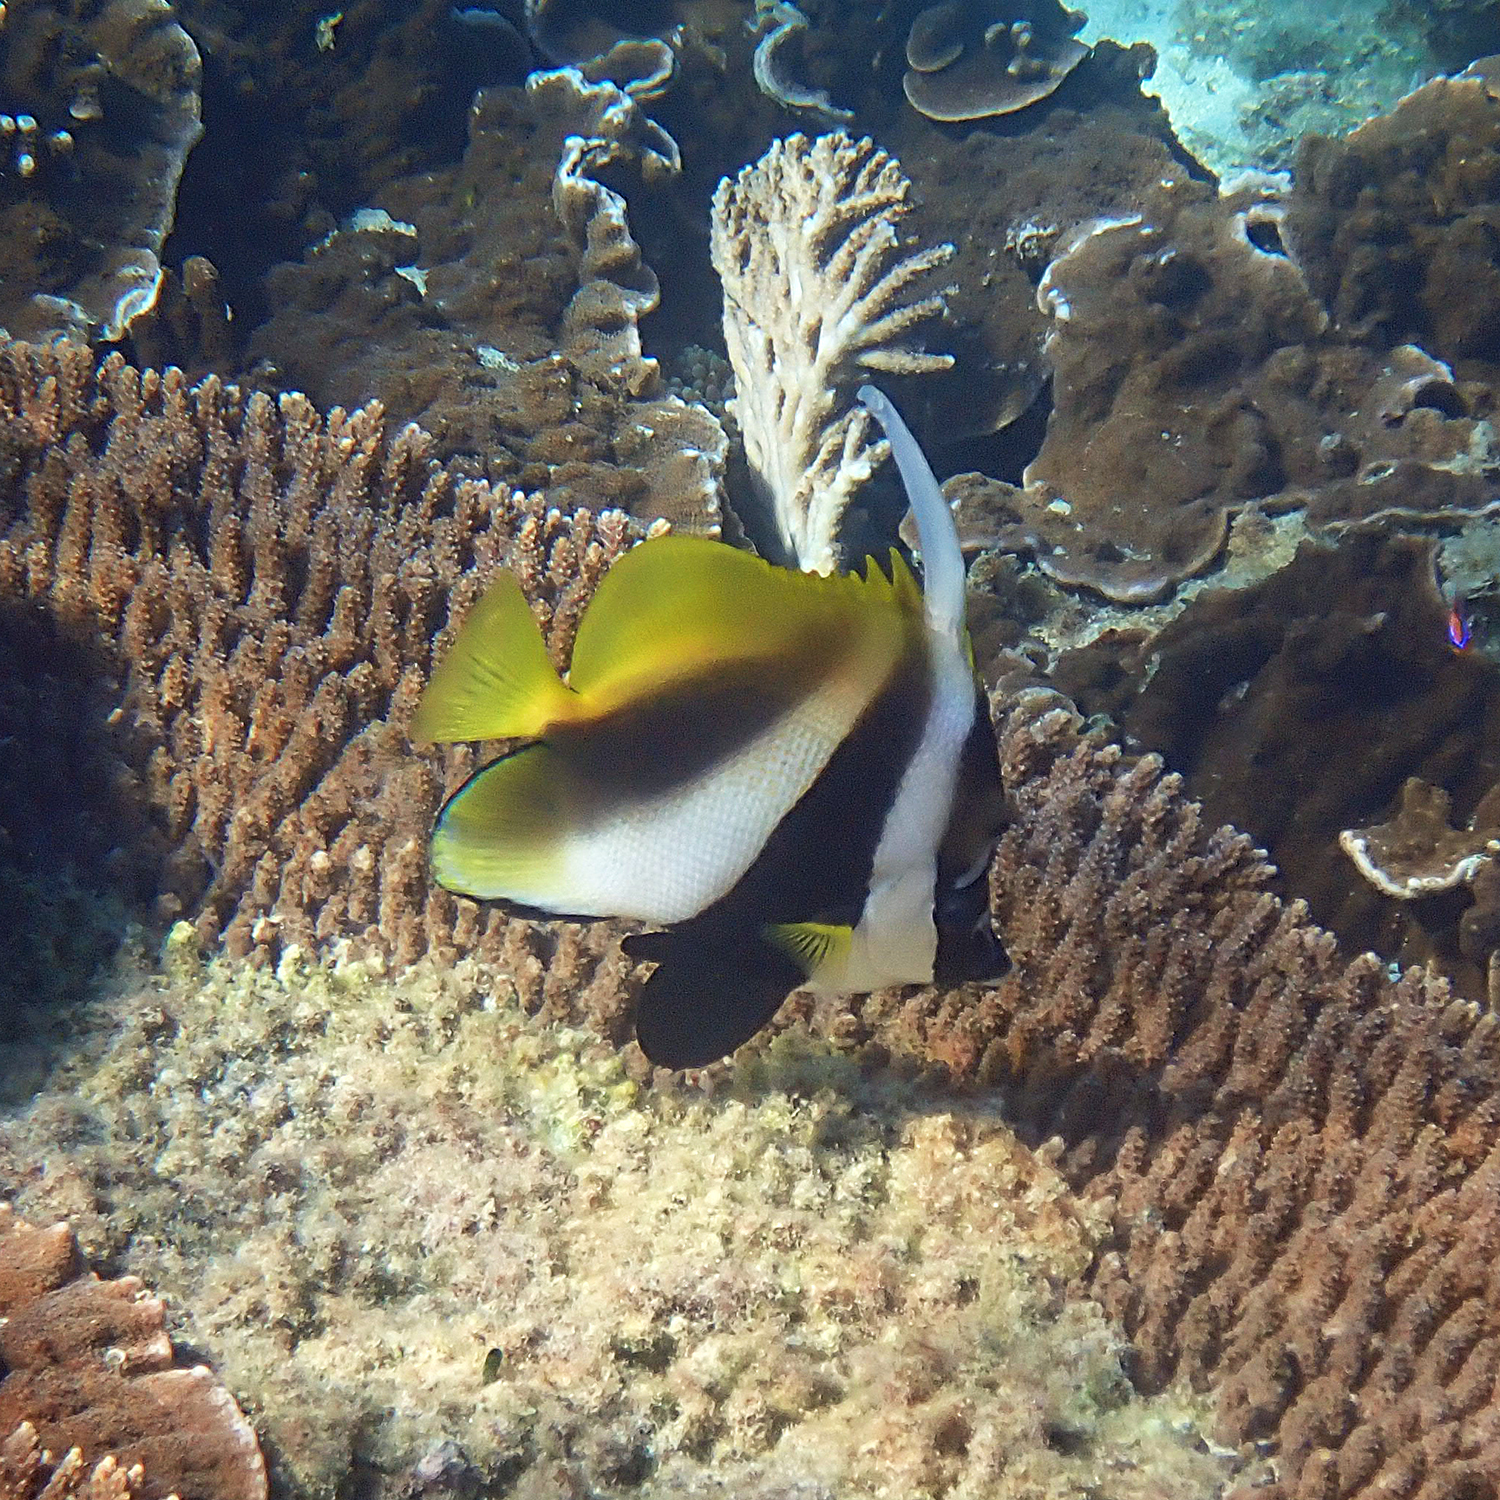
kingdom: Animalia
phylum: Chordata
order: Perciformes
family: Chaetodontidae
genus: Heniochus
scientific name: Heniochus monoceros
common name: Masked bannerfish
